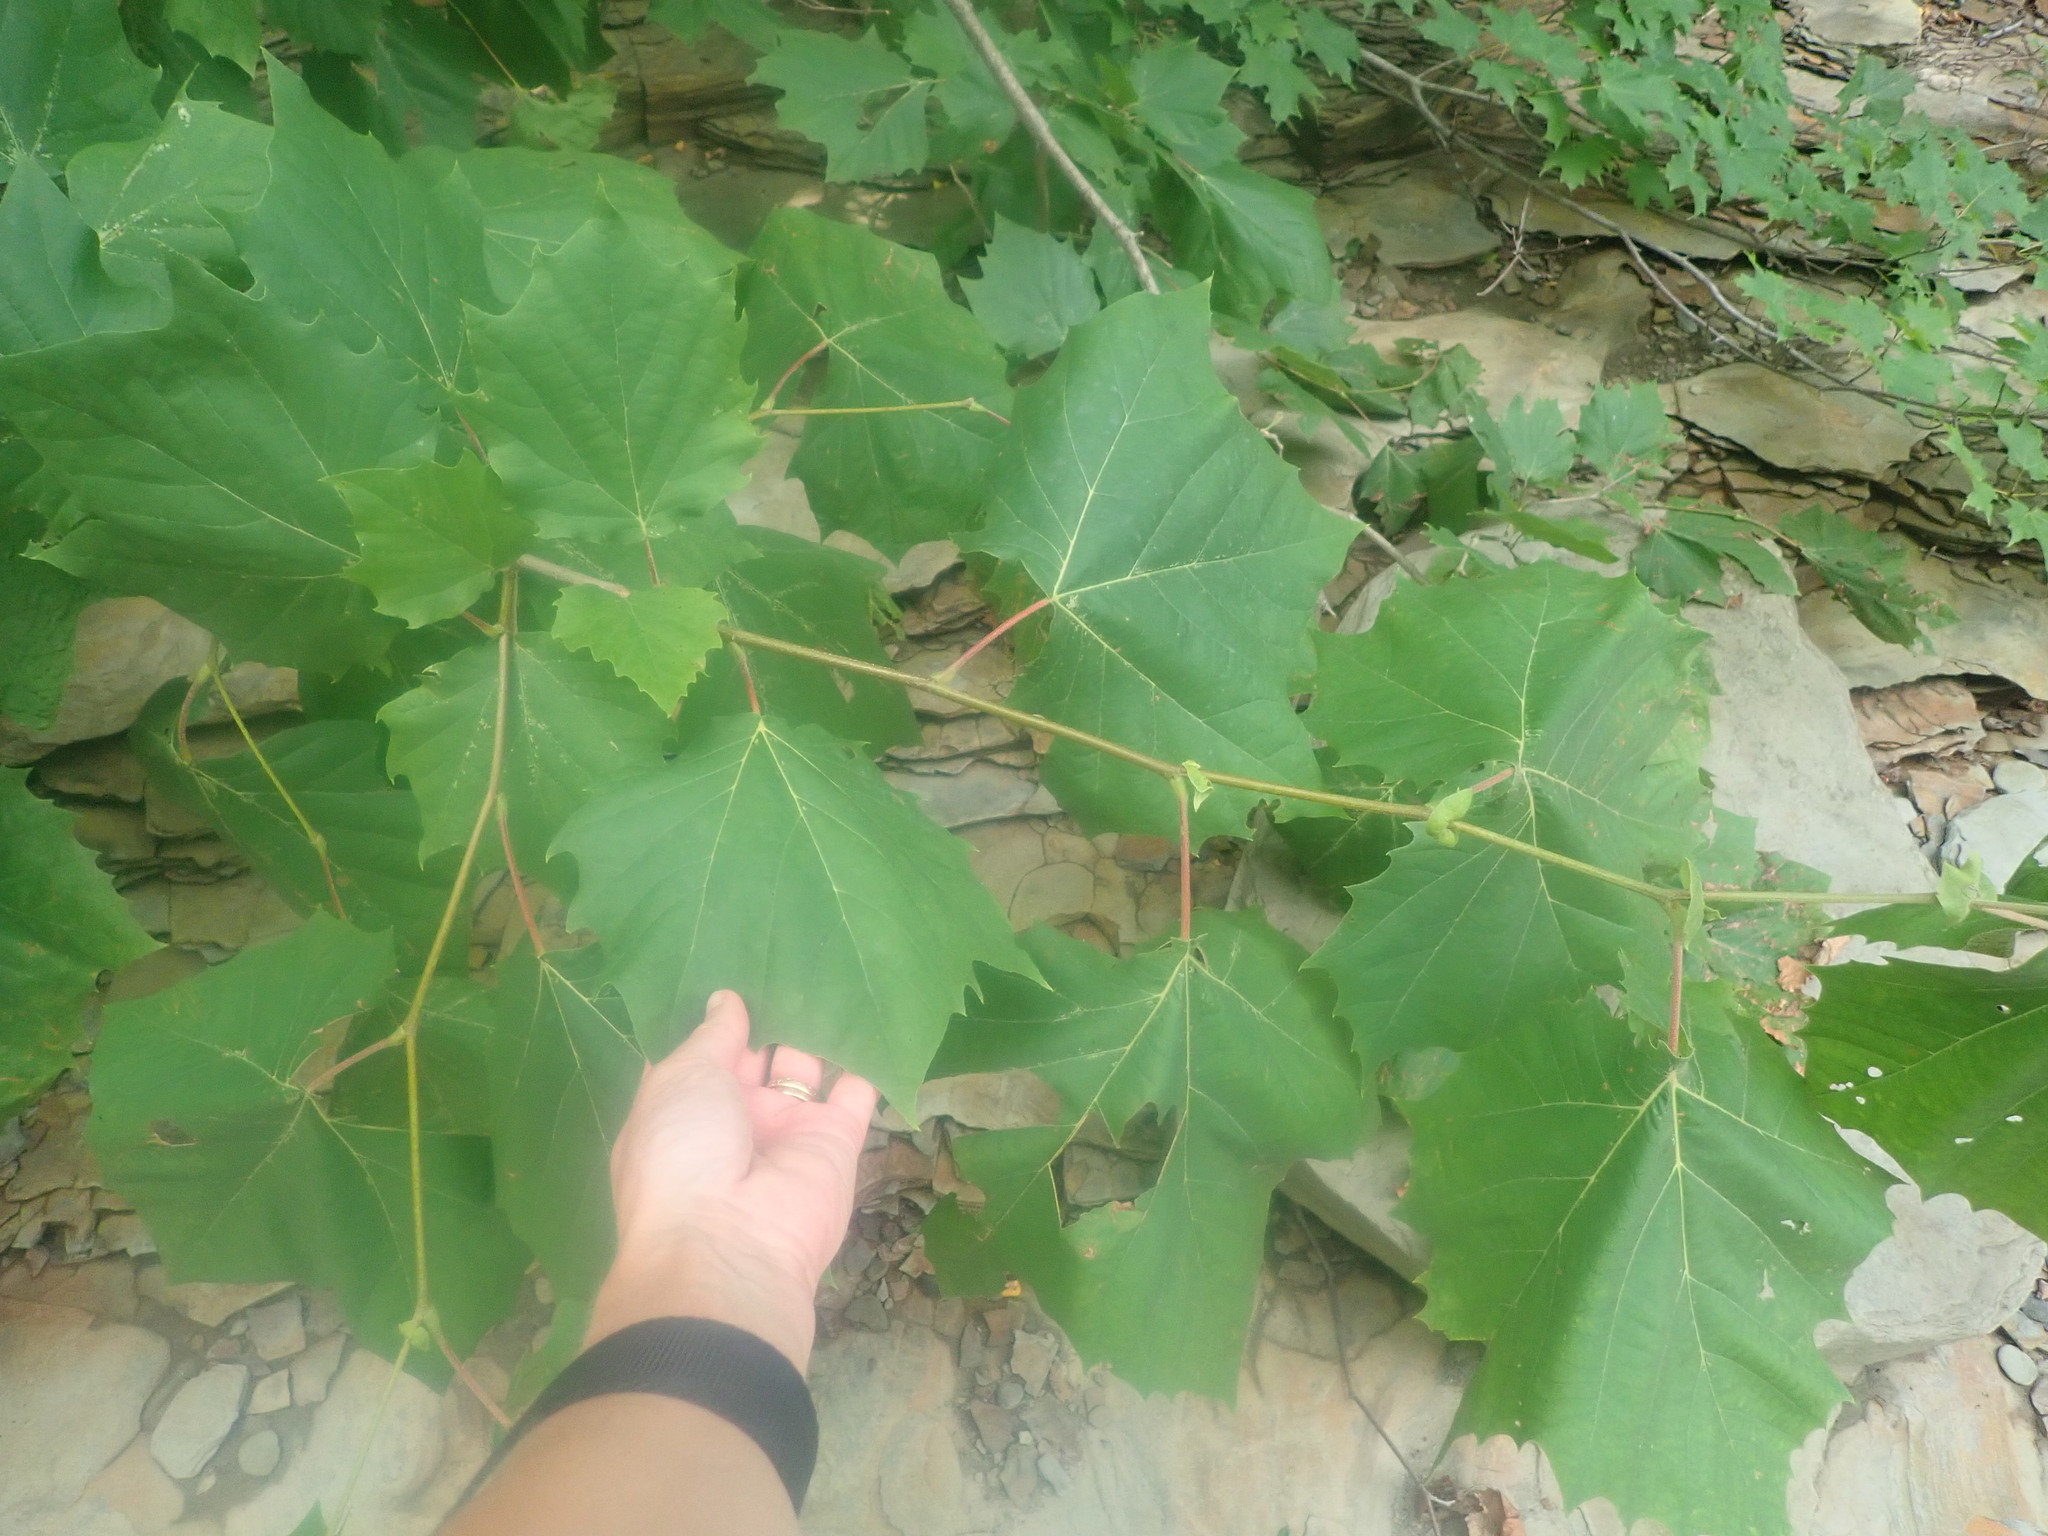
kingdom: Plantae
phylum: Tracheophyta
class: Magnoliopsida
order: Proteales
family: Platanaceae
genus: Platanus
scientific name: Platanus occidentalis
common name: American sycamore
